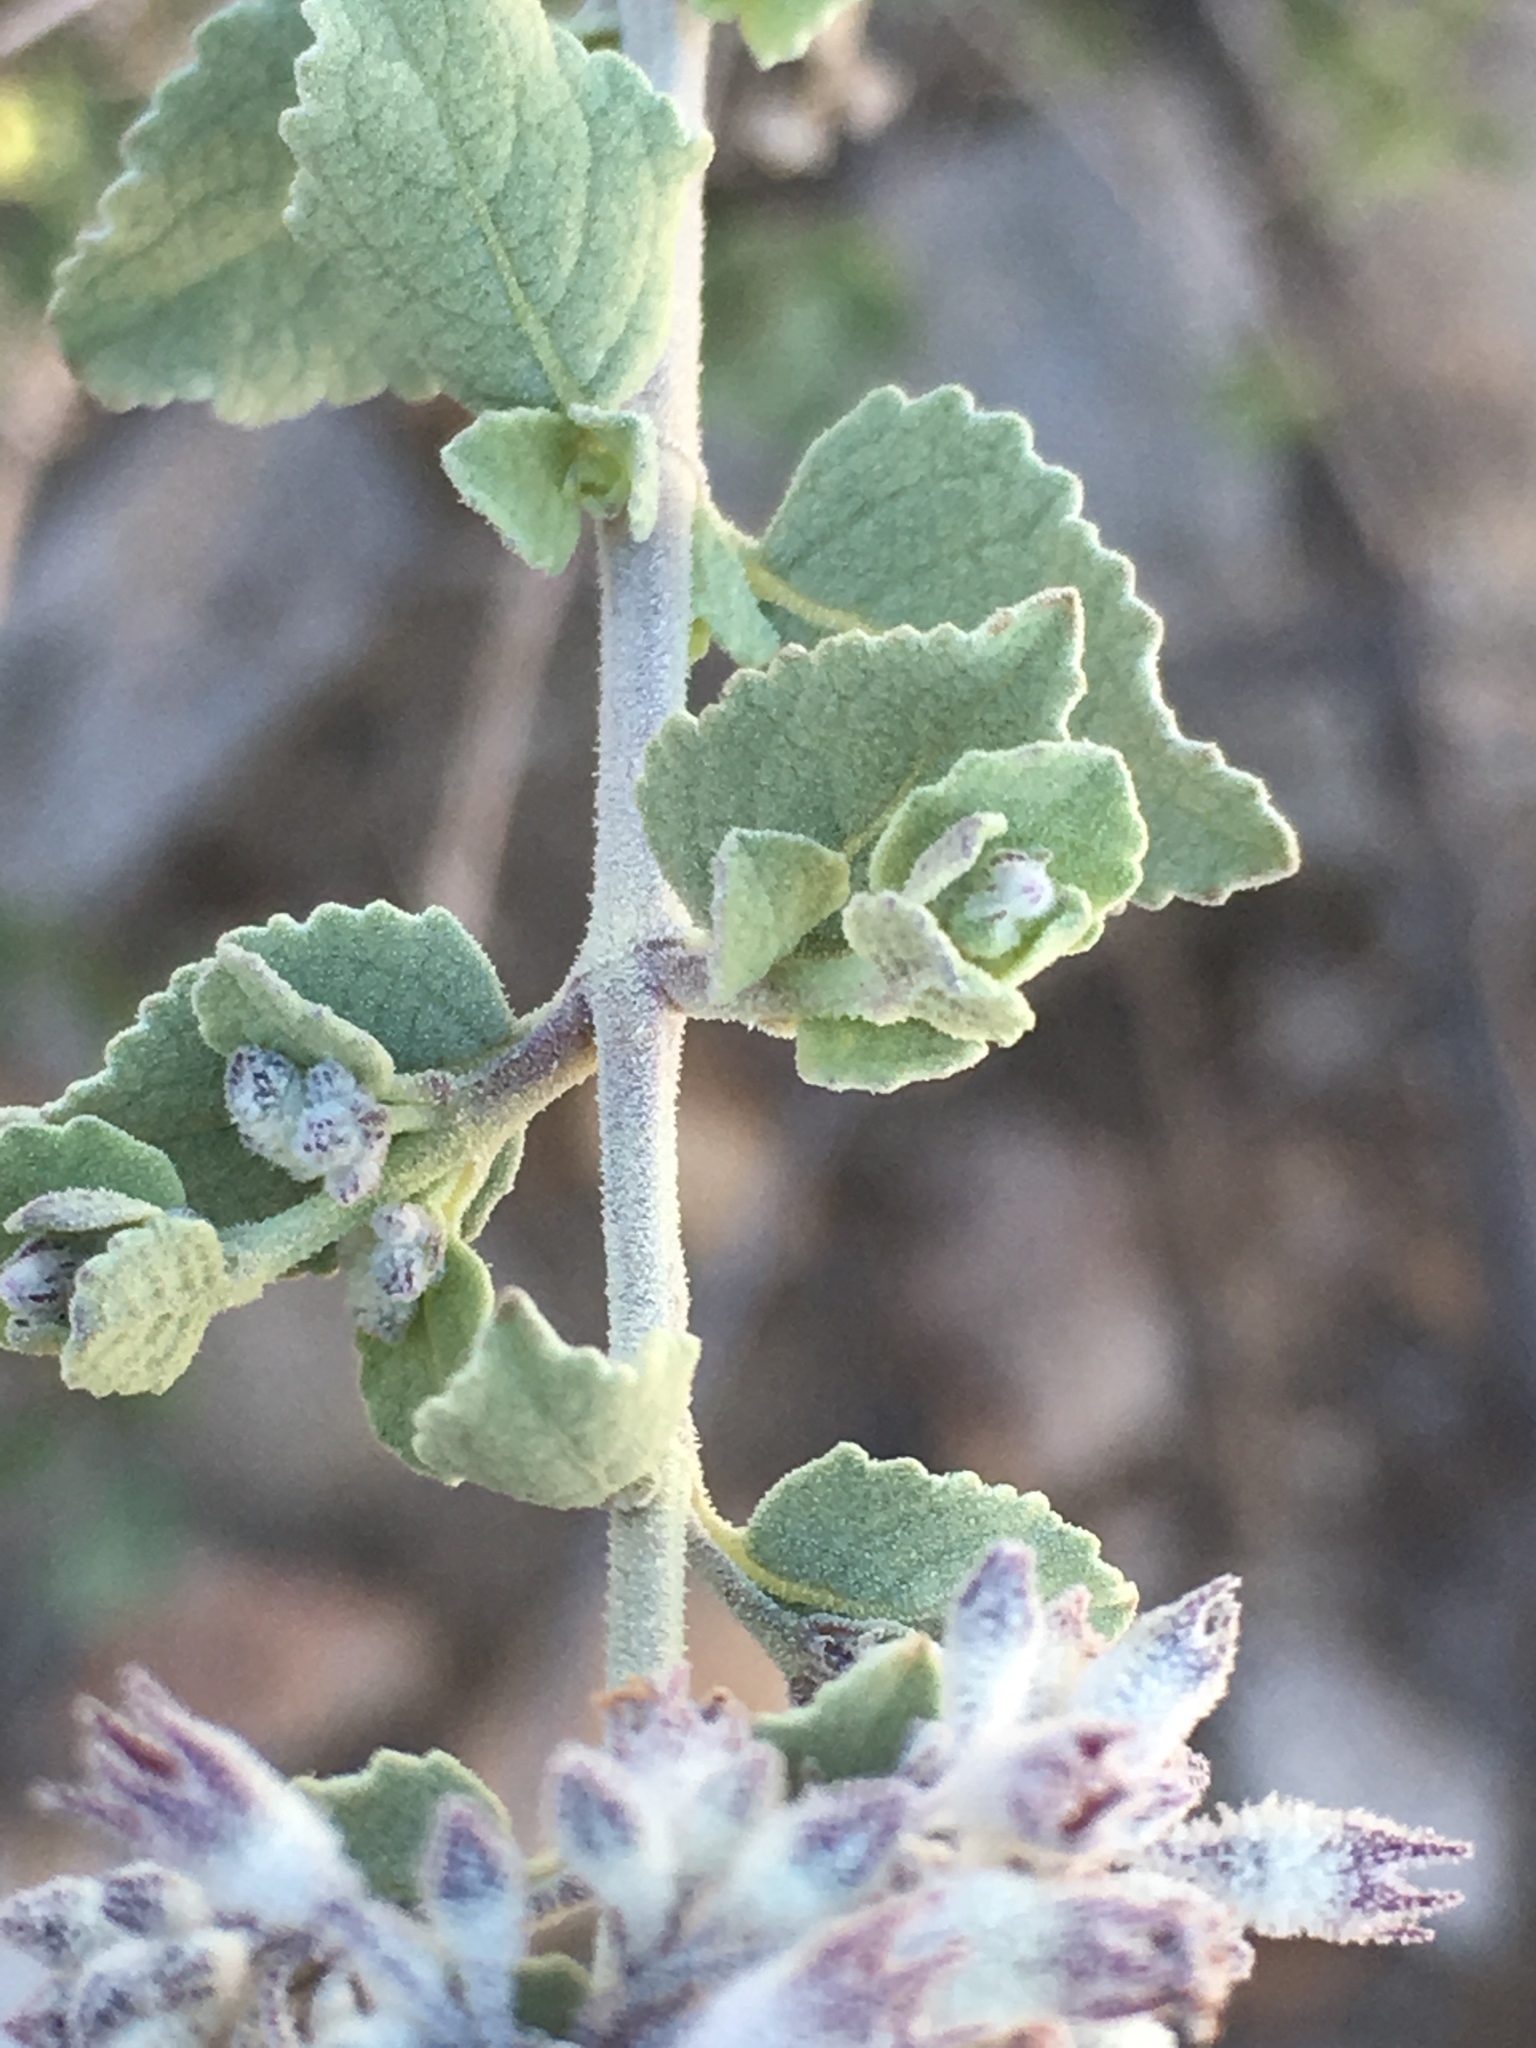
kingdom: Plantae
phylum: Tracheophyta
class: Magnoliopsida
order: Lamiales
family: Lamiaceae
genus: Condea
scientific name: Condea emoryi
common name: Chia
